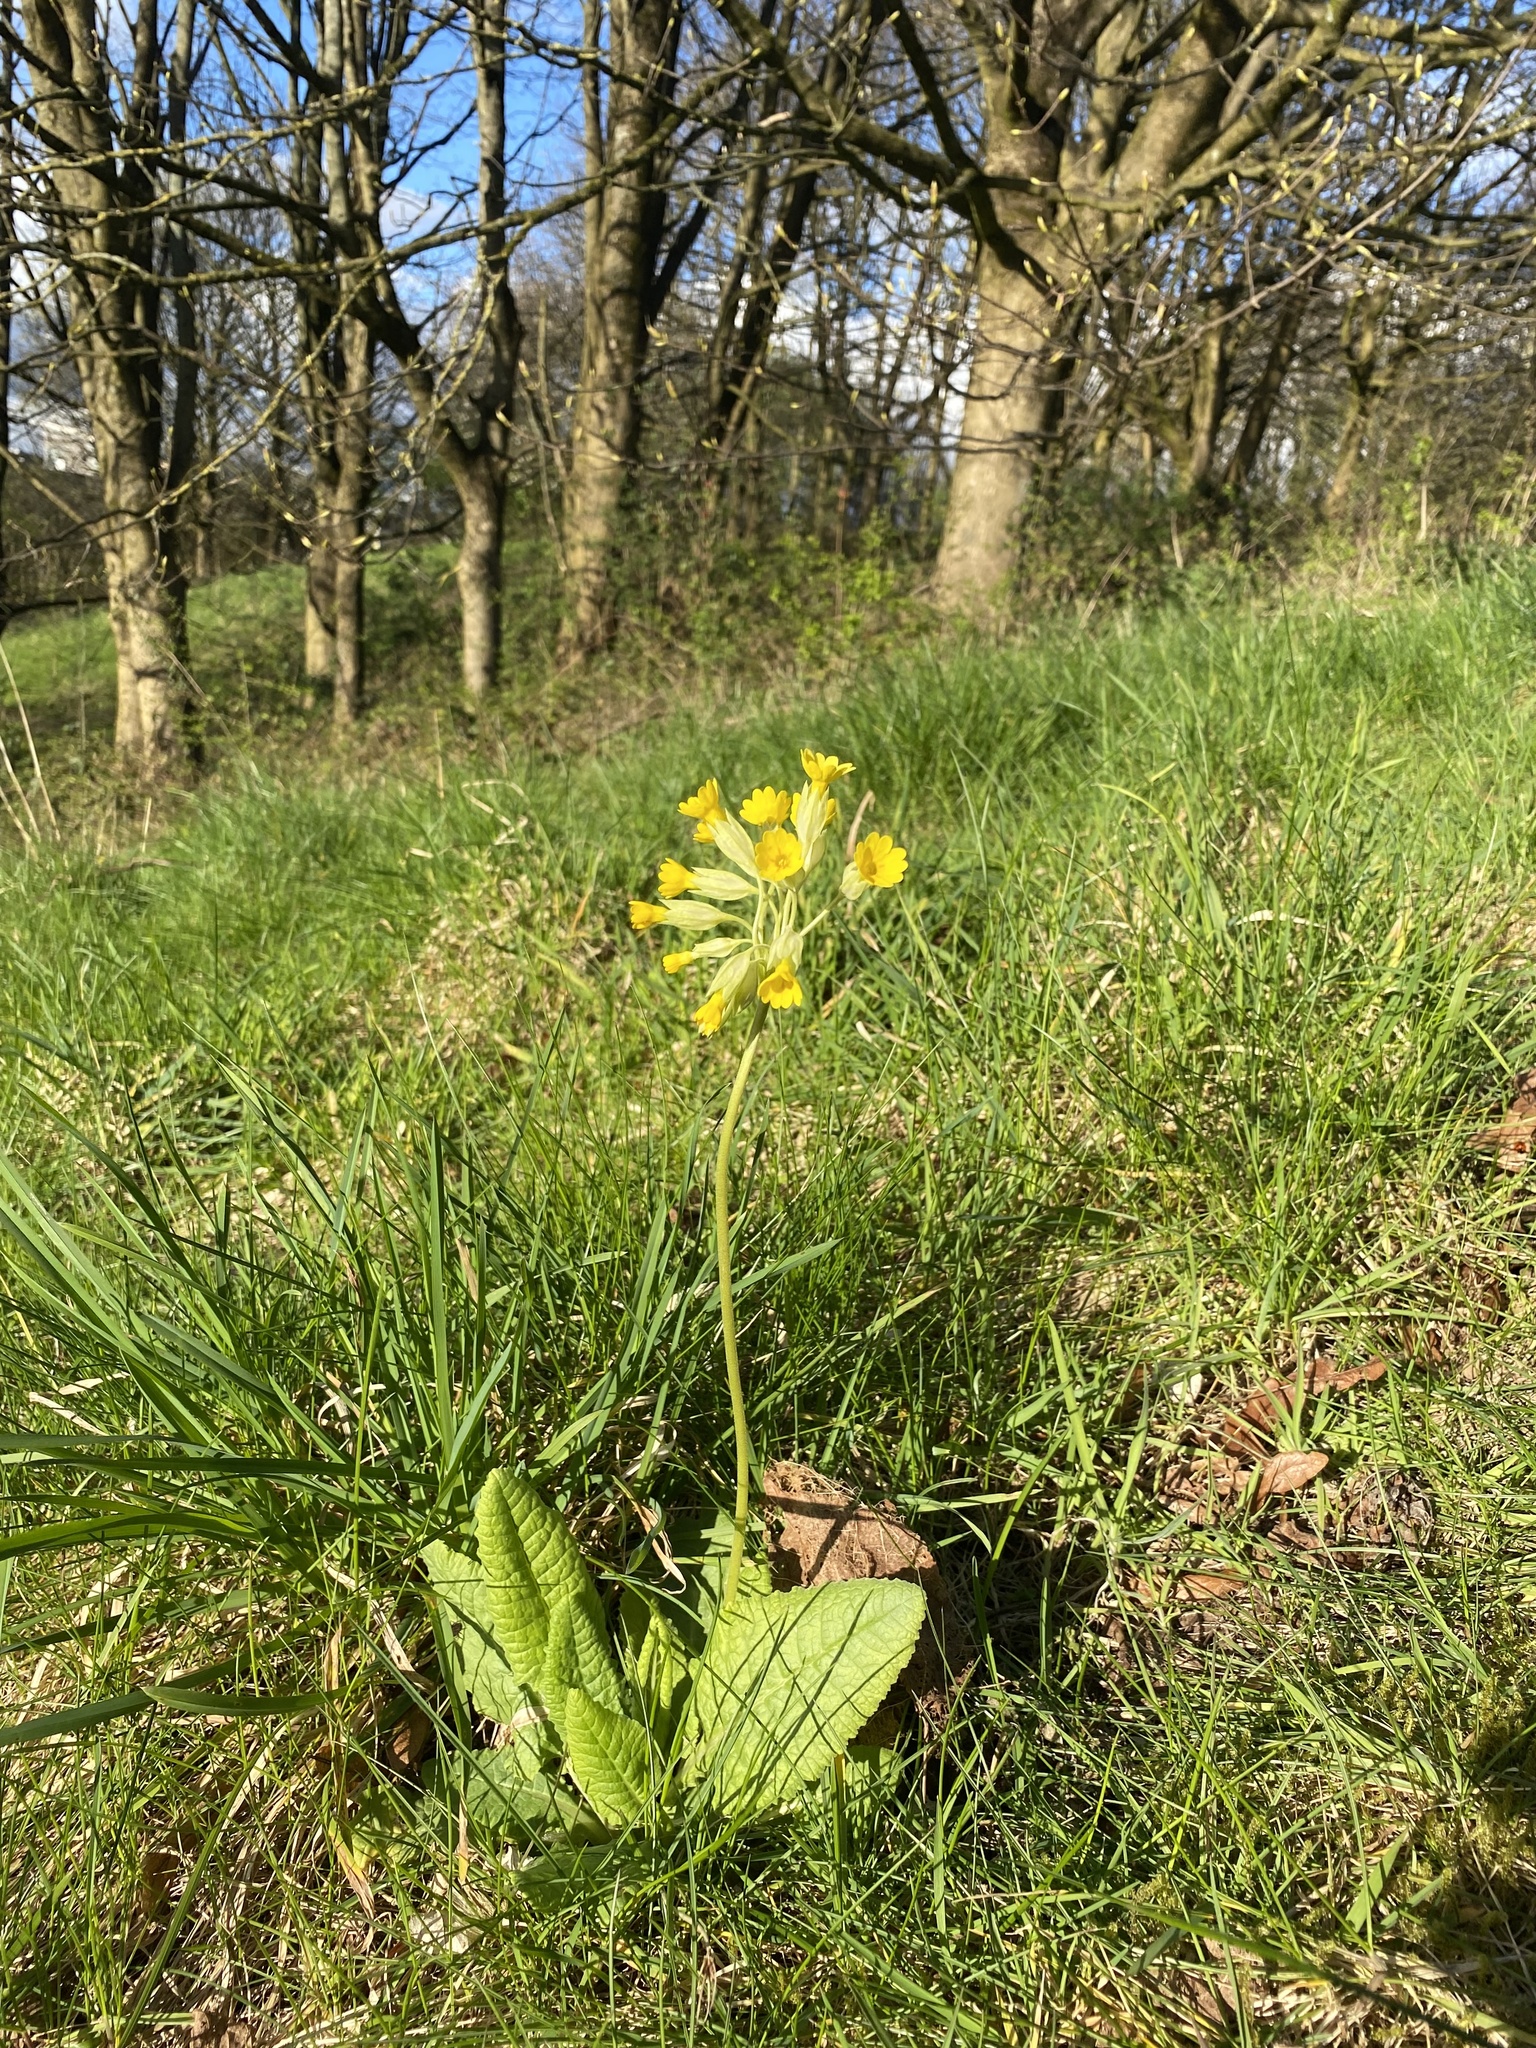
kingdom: Plantae
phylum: Tracheophyta
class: Magnoliopsida
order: Ericales
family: Primulaceae
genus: Primula
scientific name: Primula veris
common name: Cowslip
